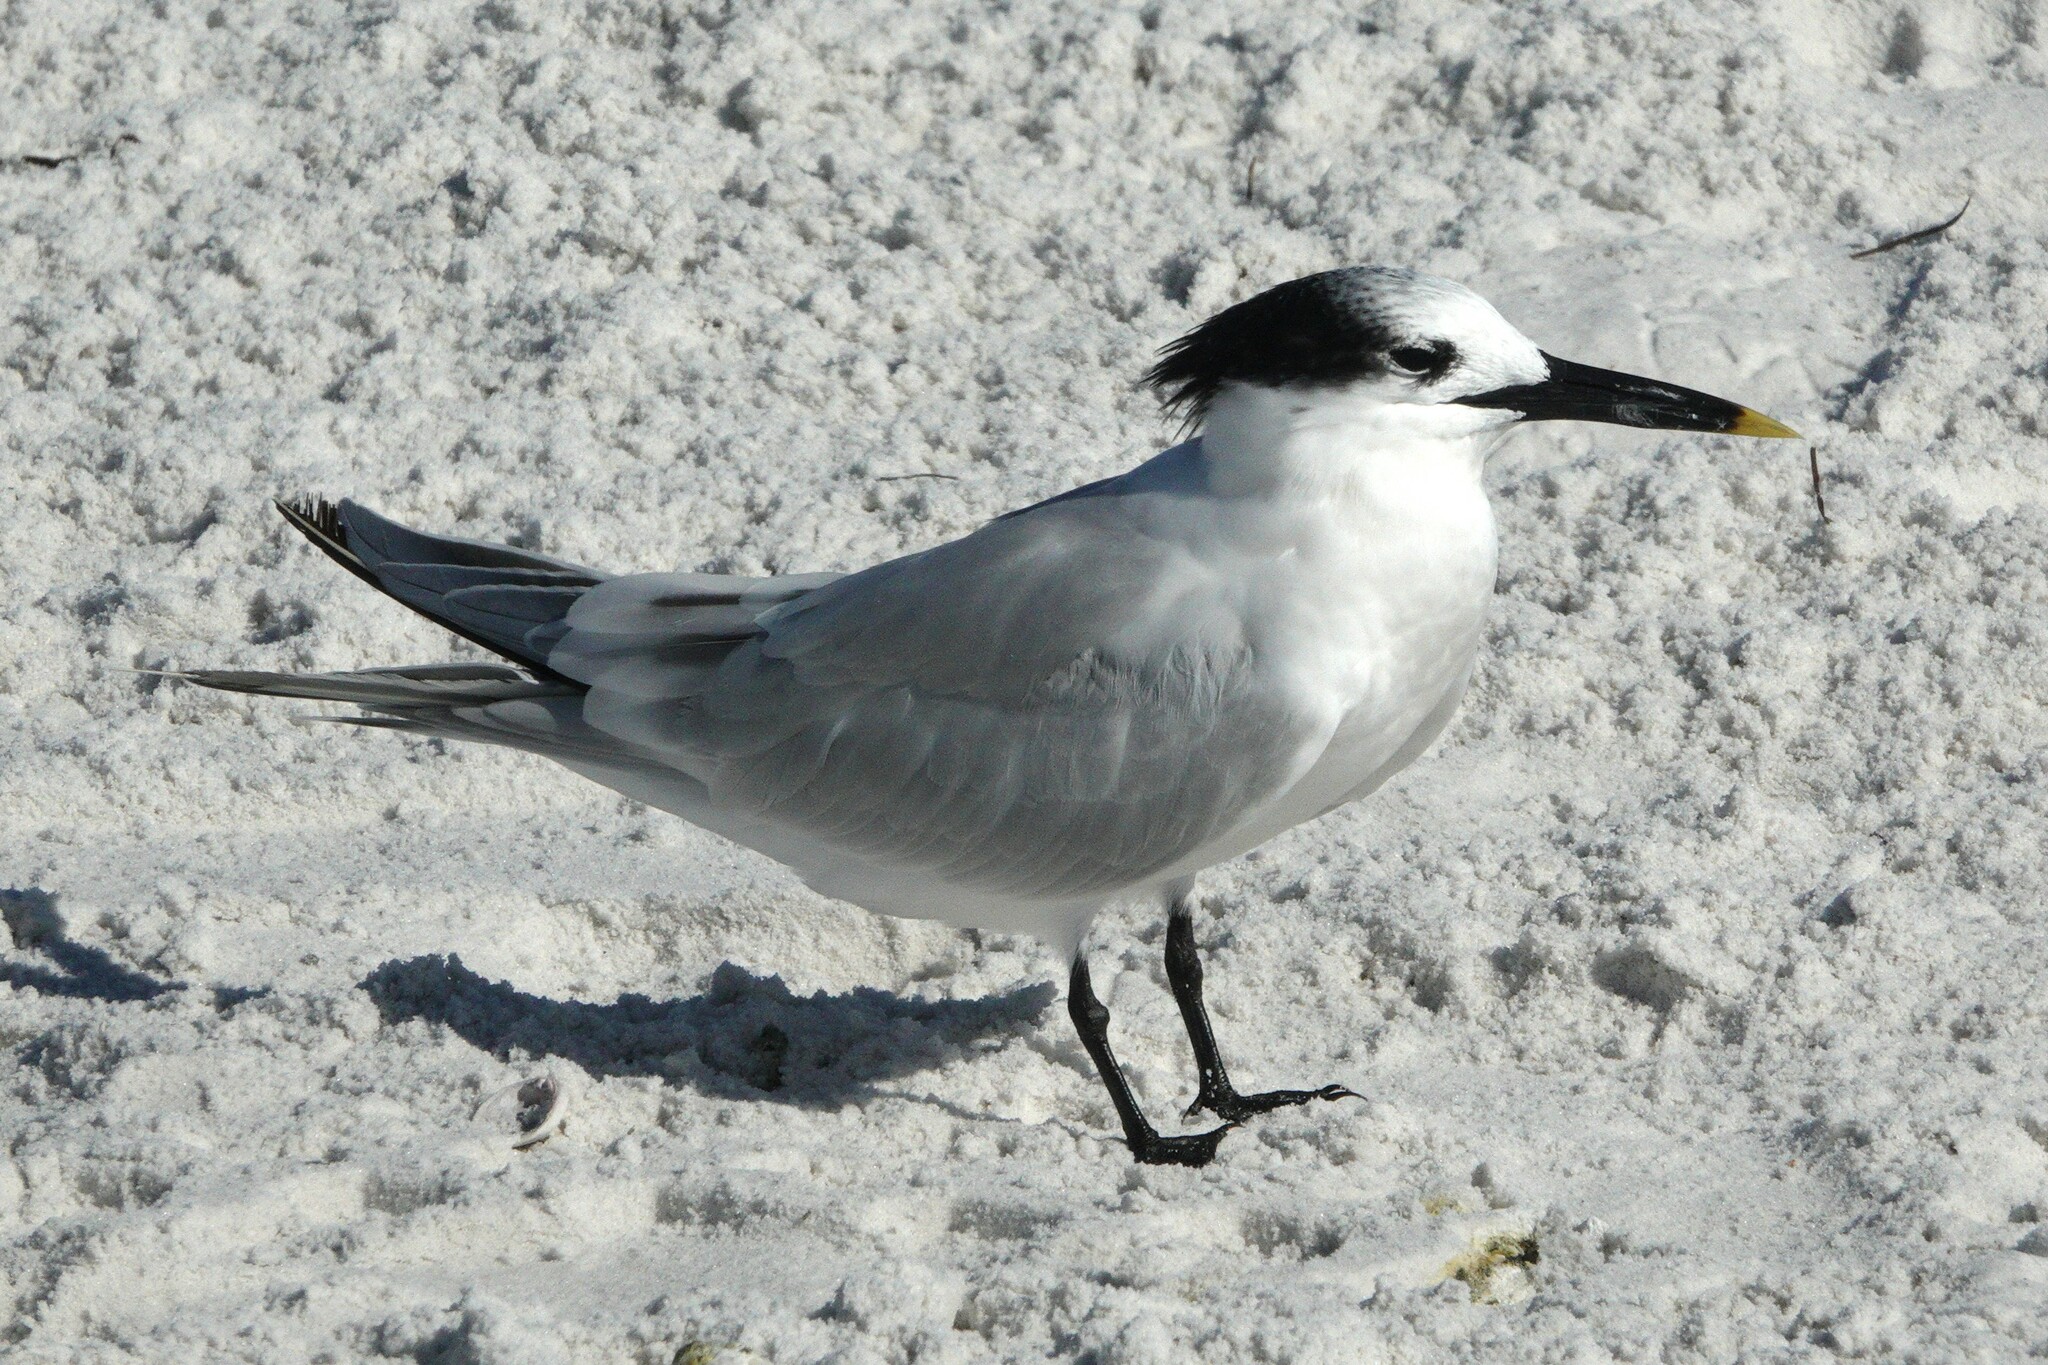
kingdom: Animalia
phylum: Chordata
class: Aves
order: Charadriiformes
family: Laridae
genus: Thalasseus
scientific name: Thalasseus sandvicensis
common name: Sandwich tern
